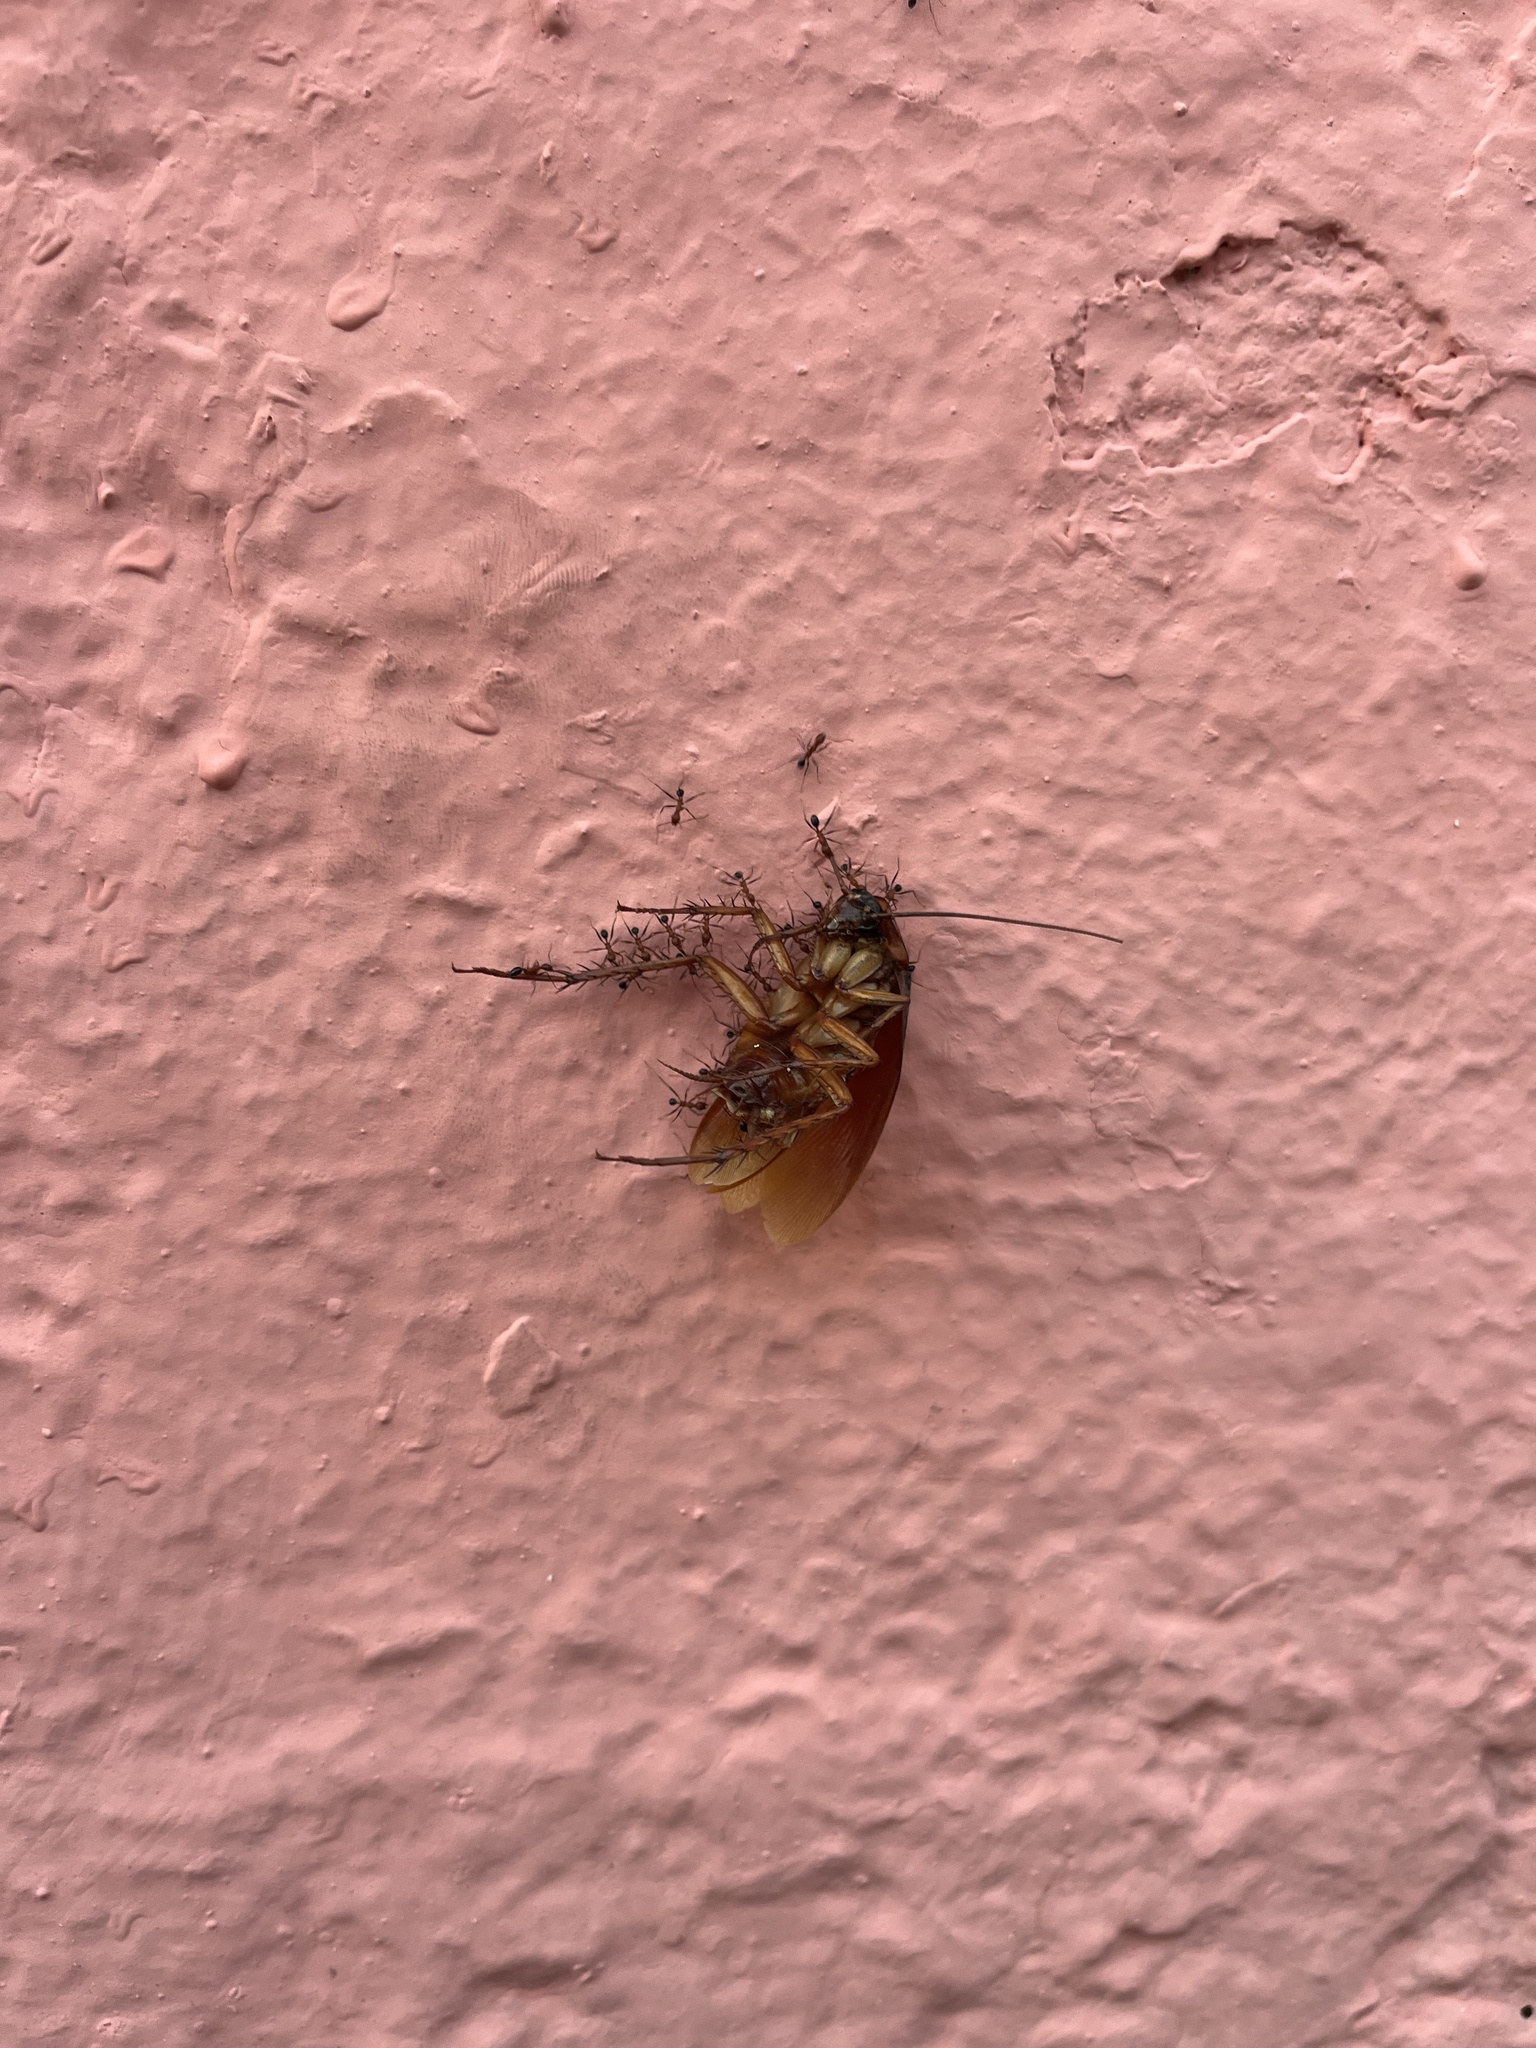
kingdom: Animalia
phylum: Arthropoda
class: Insecta
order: Blattodea
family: Blattidae
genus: Periplaneta
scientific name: Periplaneta americana
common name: American cockroach
